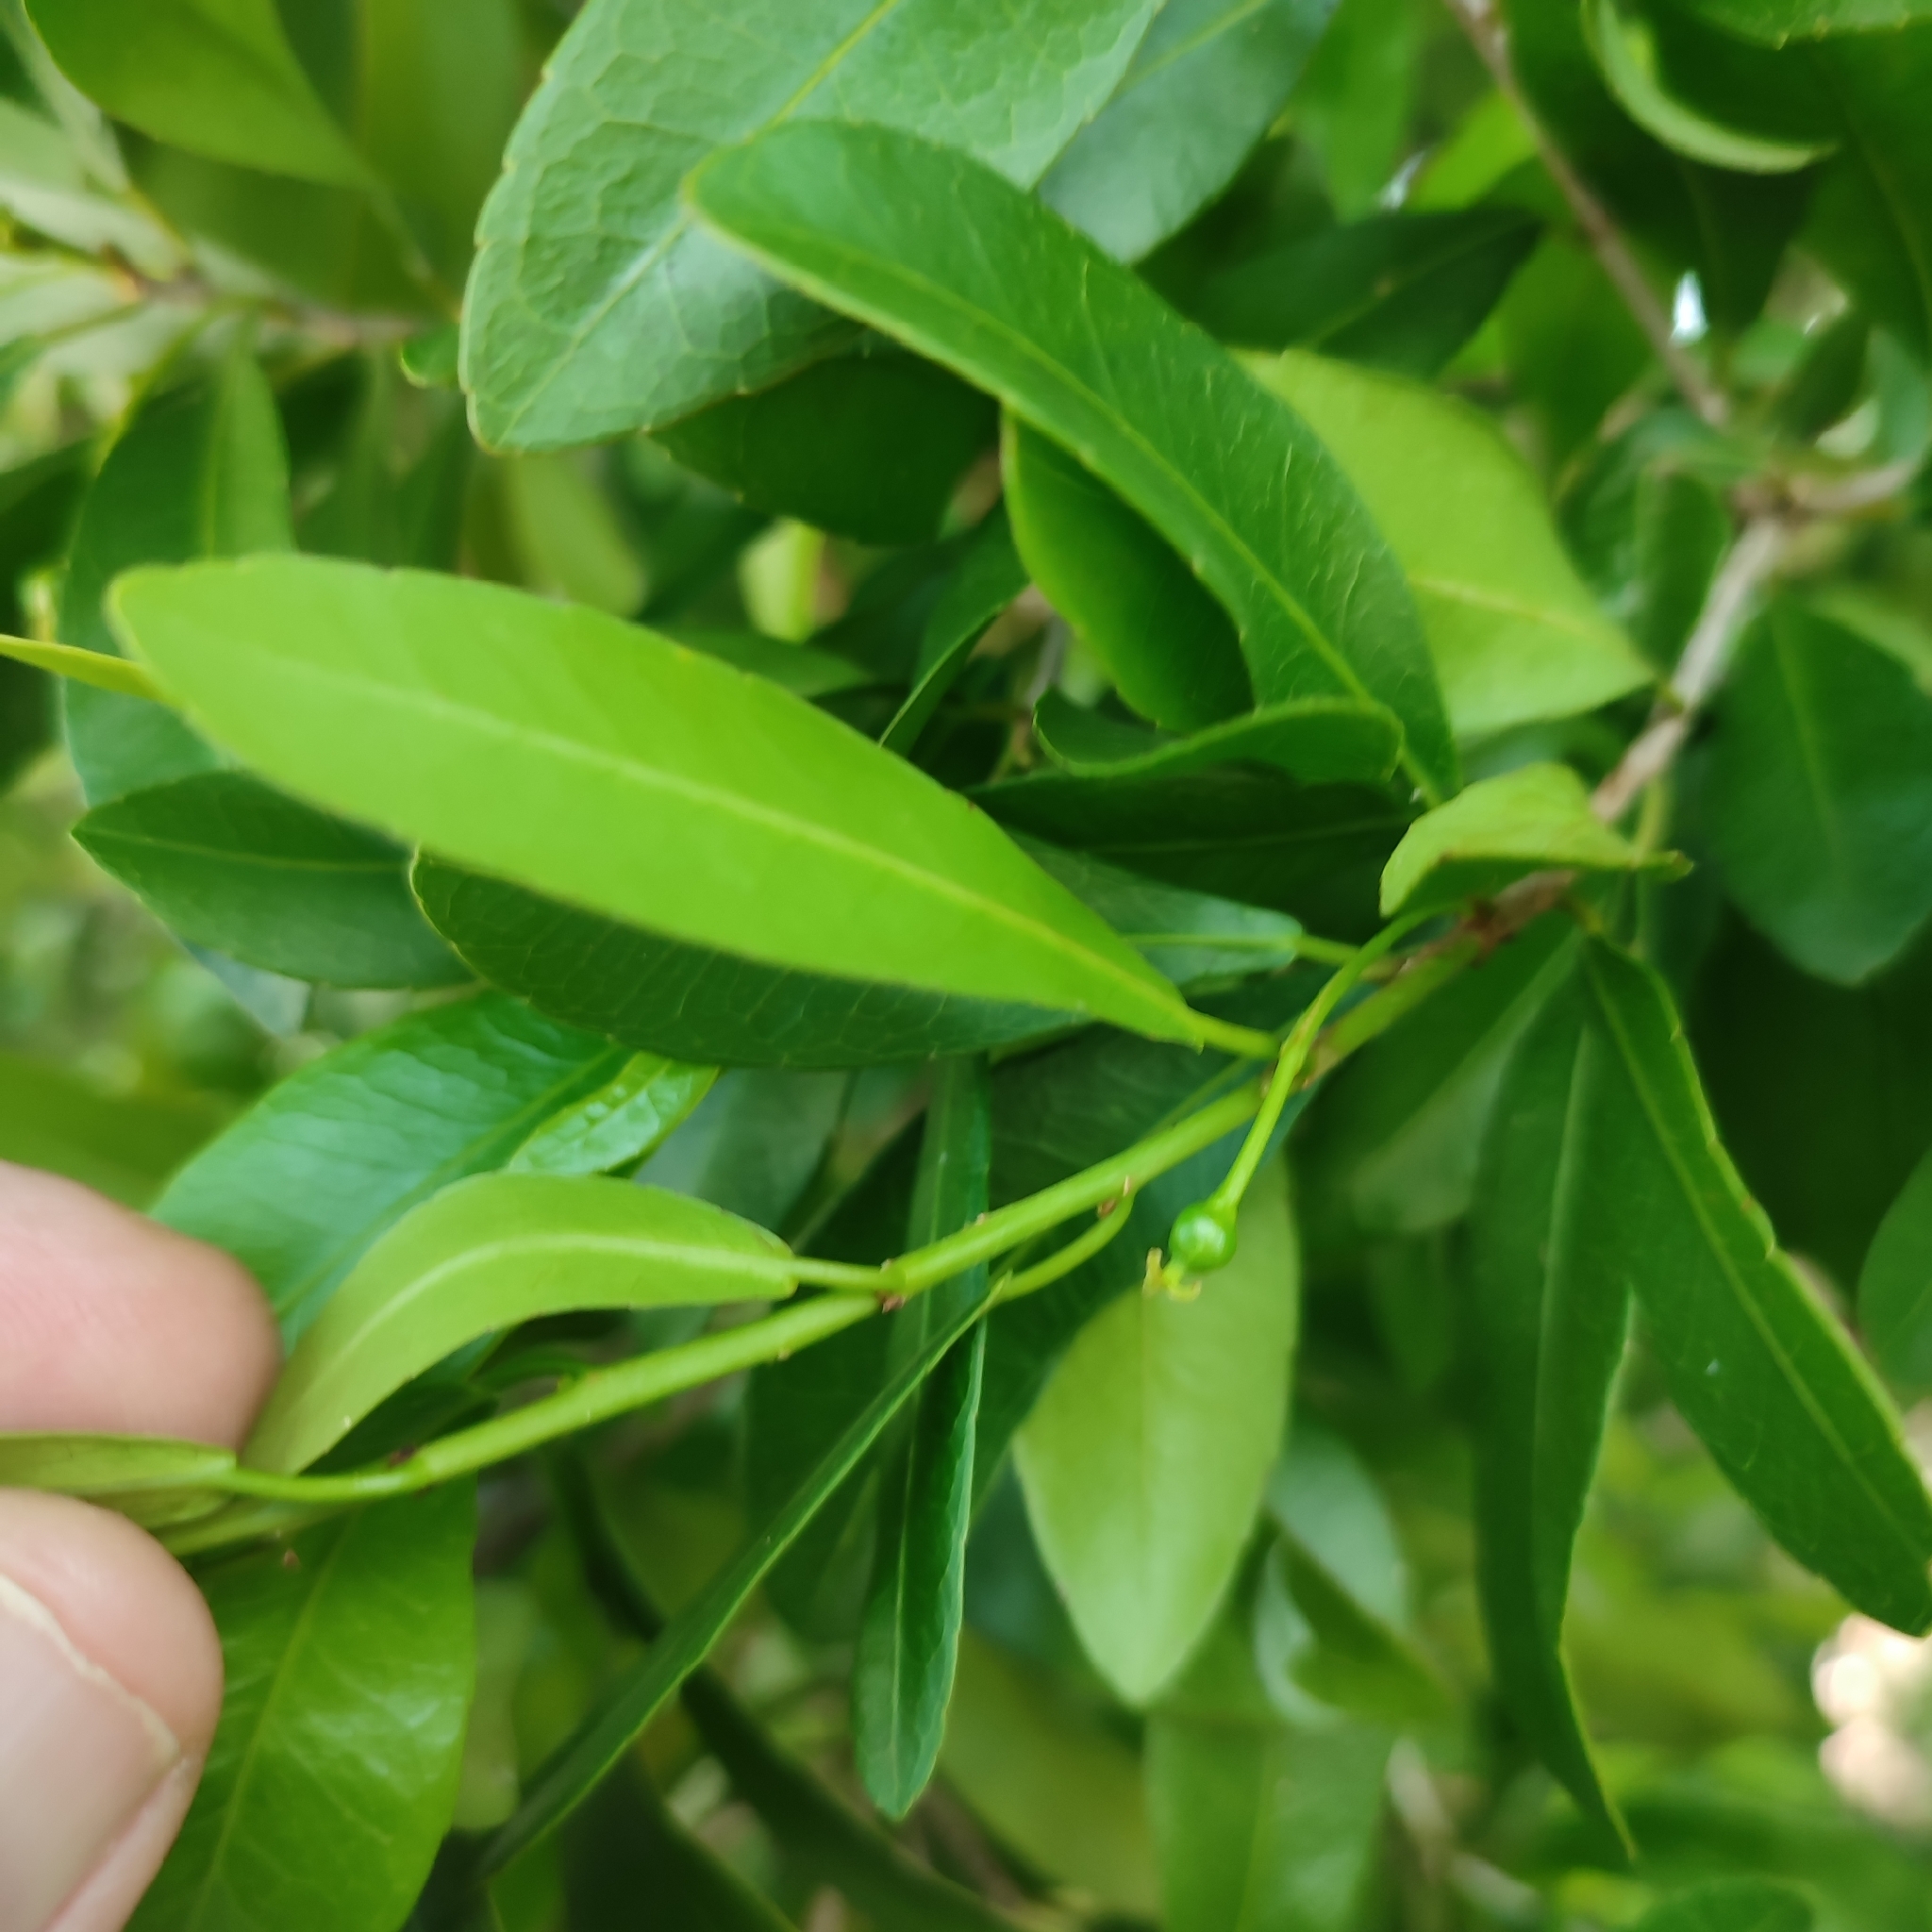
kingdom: Plantae
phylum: Tracheophyta
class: Magnoliopsida
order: Malpighiales
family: Euphorbiaceae
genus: Gymnanthes
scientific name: Gymnanthes lucida
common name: Oysterwood
